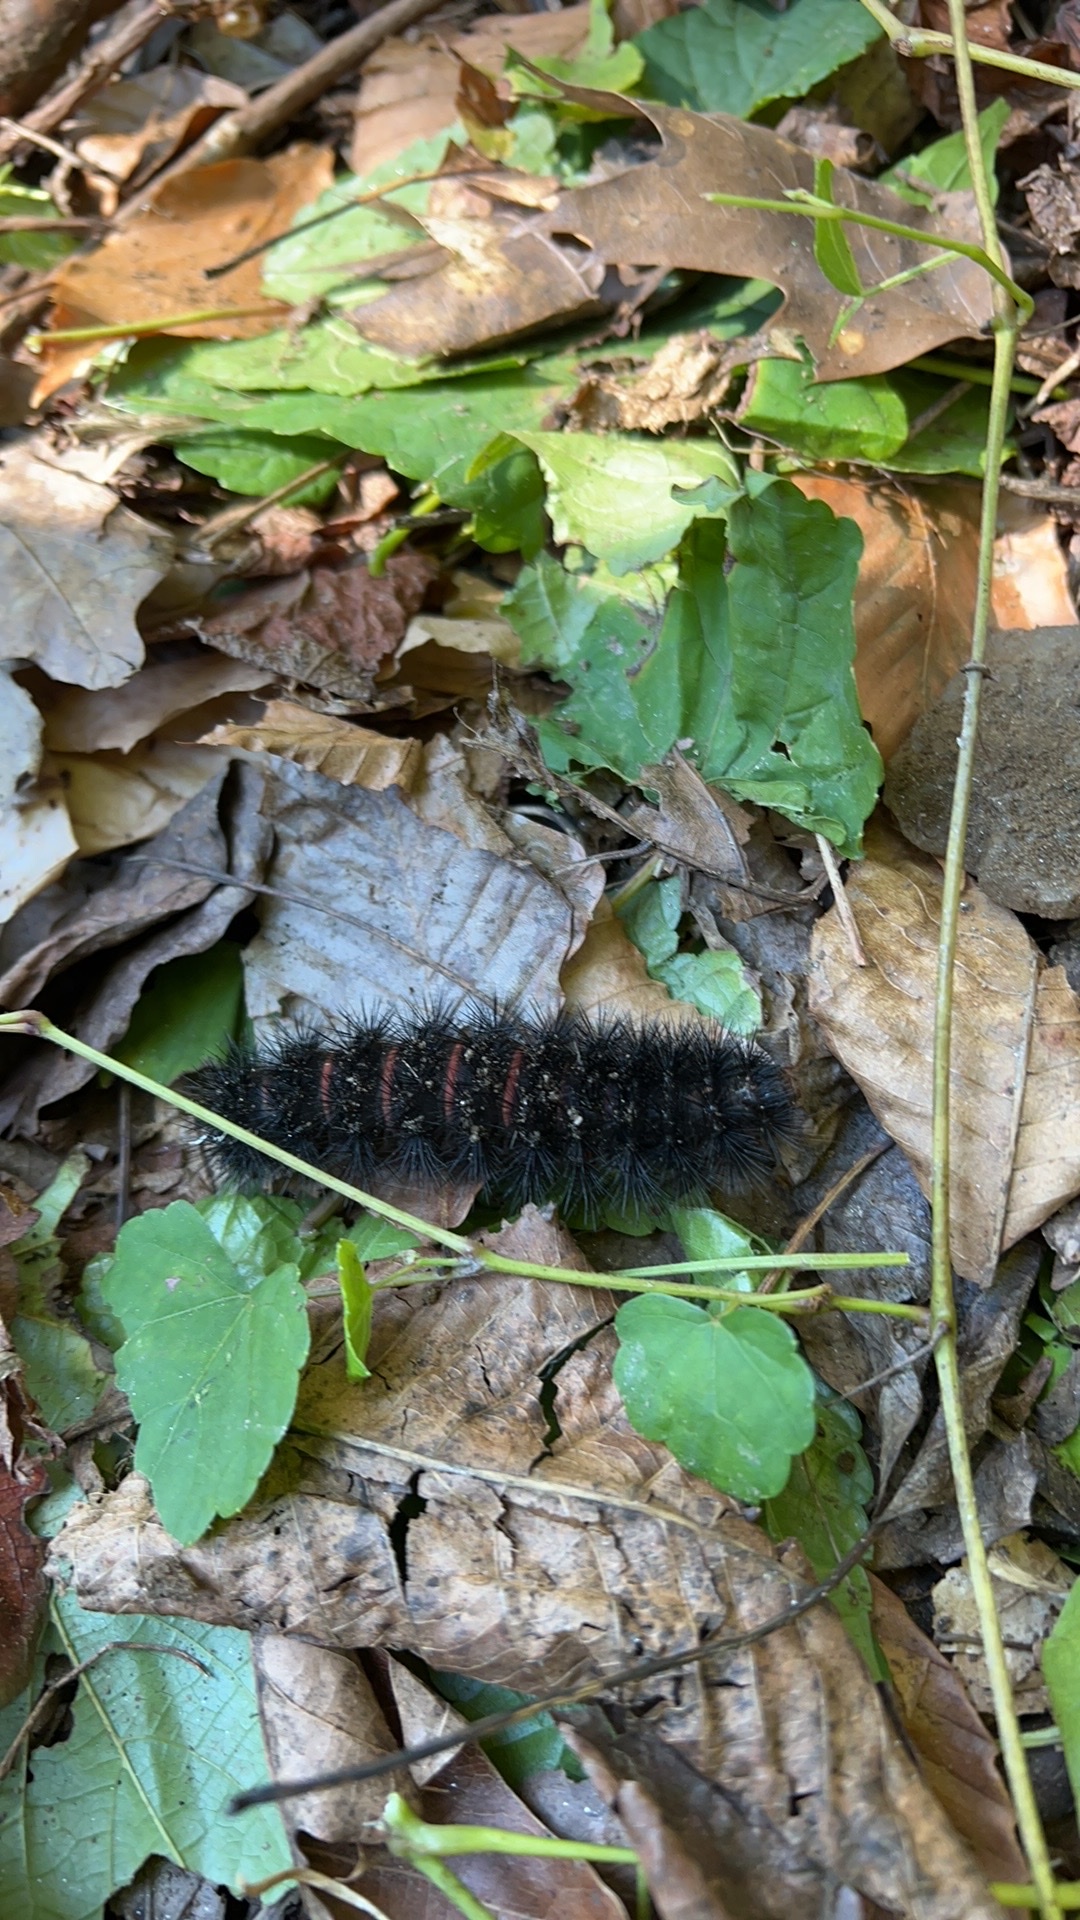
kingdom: Animalia
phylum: Arthropoda
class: Insecta
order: Lepidoptera
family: Erebidae
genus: Hypercompe
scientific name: Hypercompe scribonia
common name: Giant leopard moth
